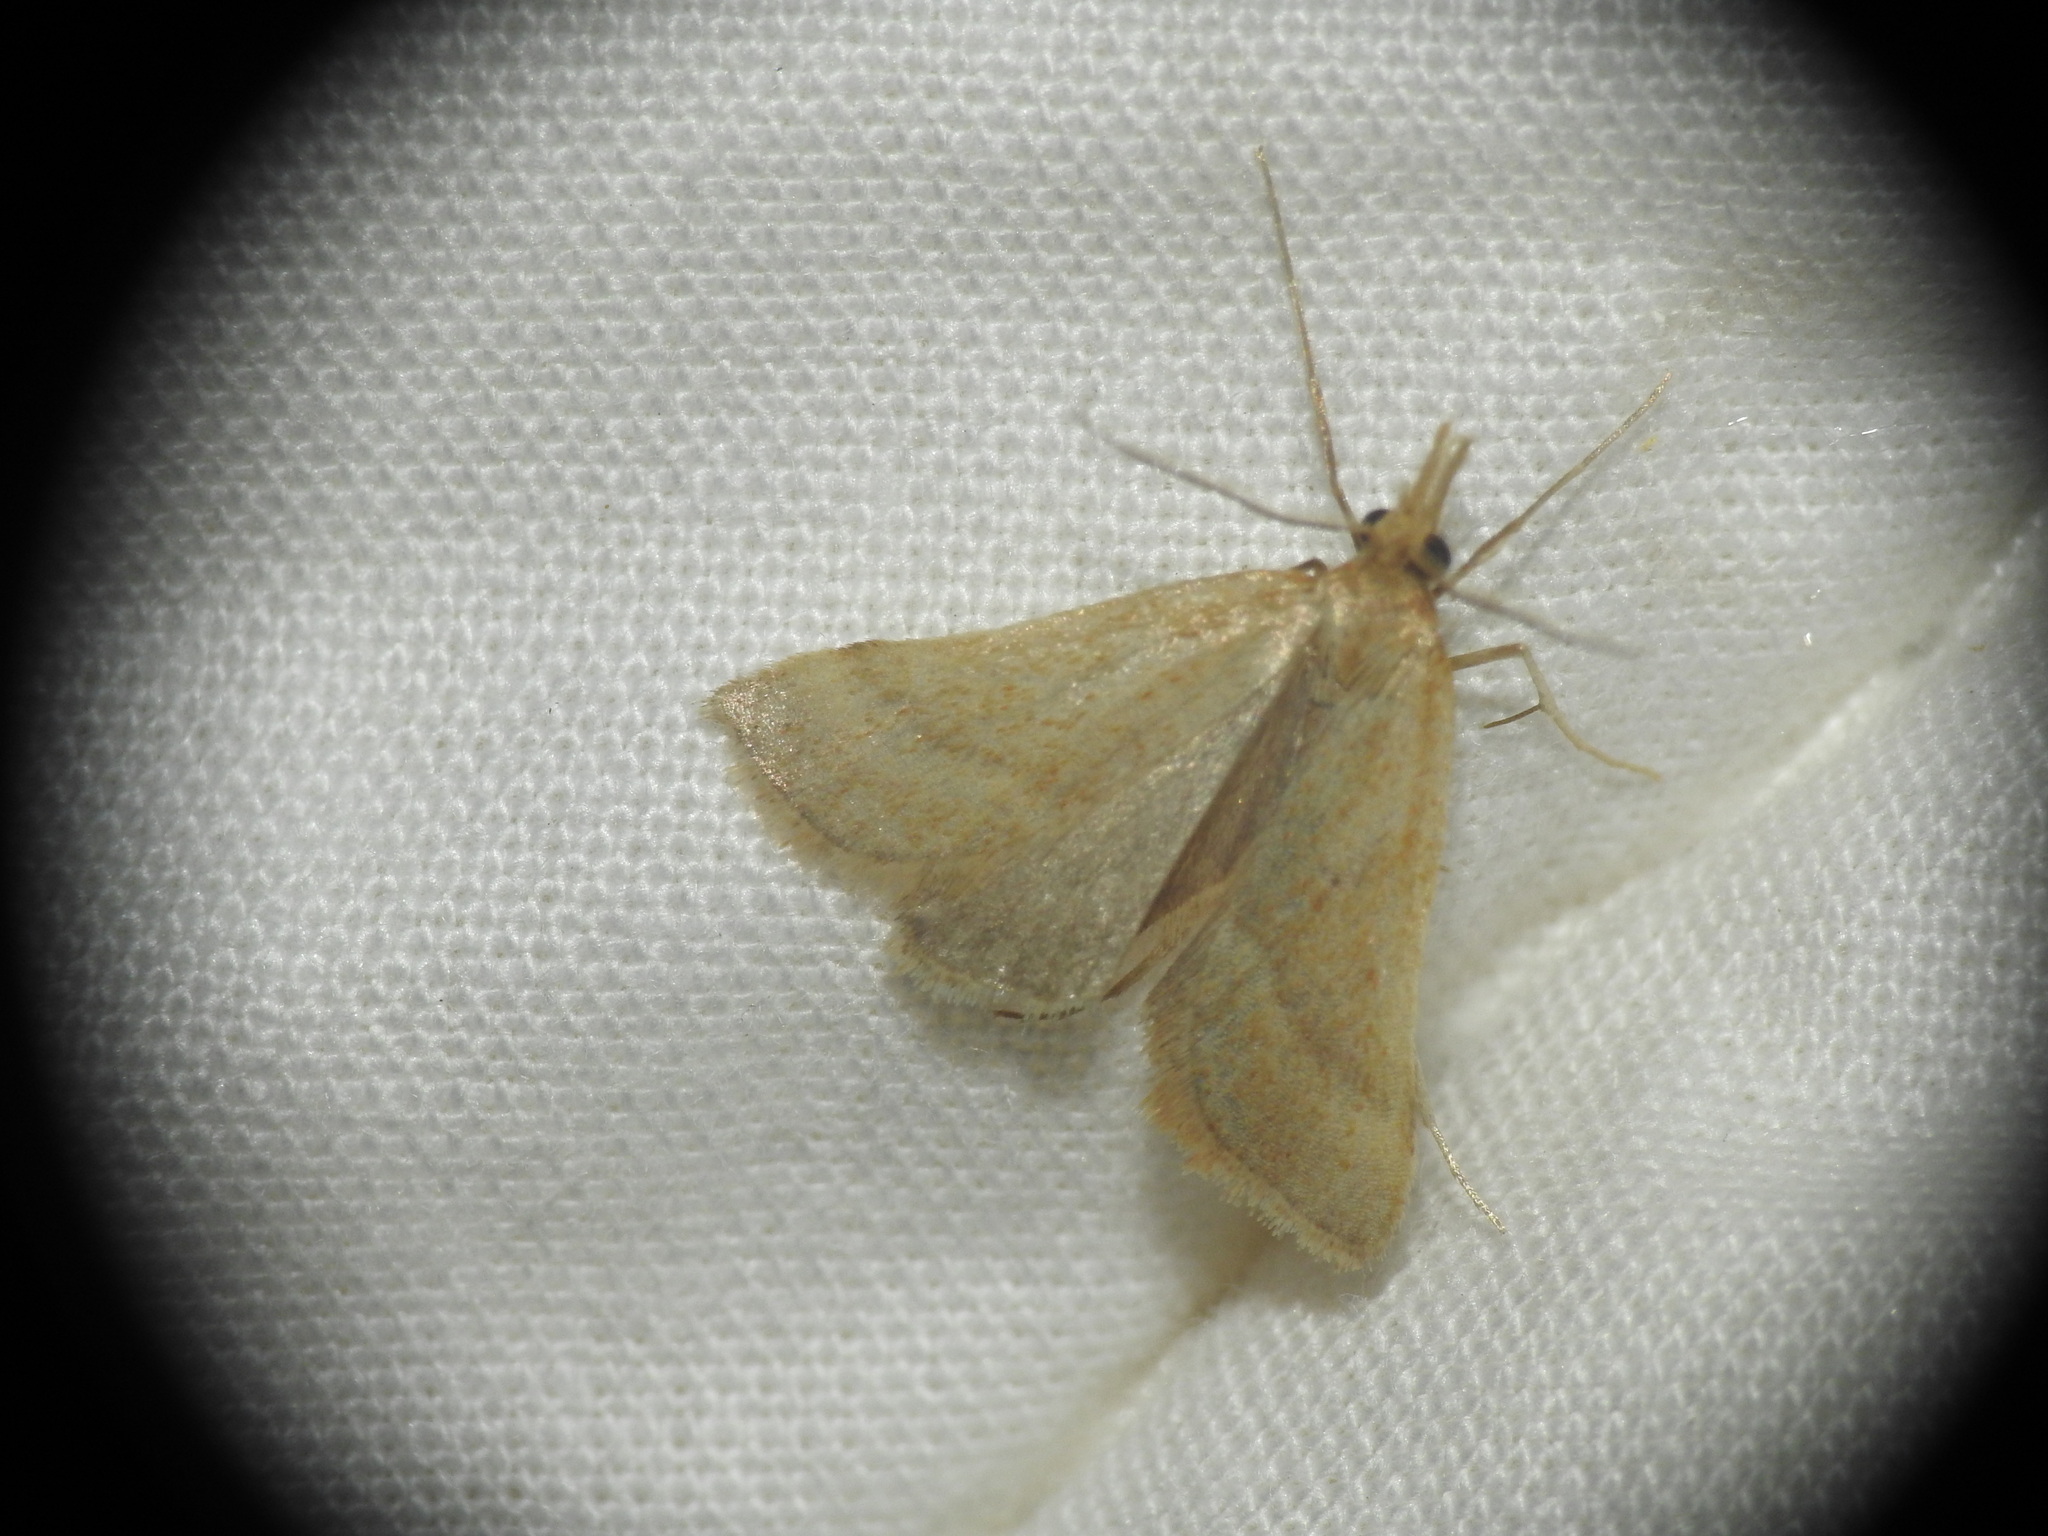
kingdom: Animalia
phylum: Arthropoda
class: Insecta
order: Lepidoptera
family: Pyralidae
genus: Synaphe
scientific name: Synaphe punctalis
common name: Long-legged tabby
